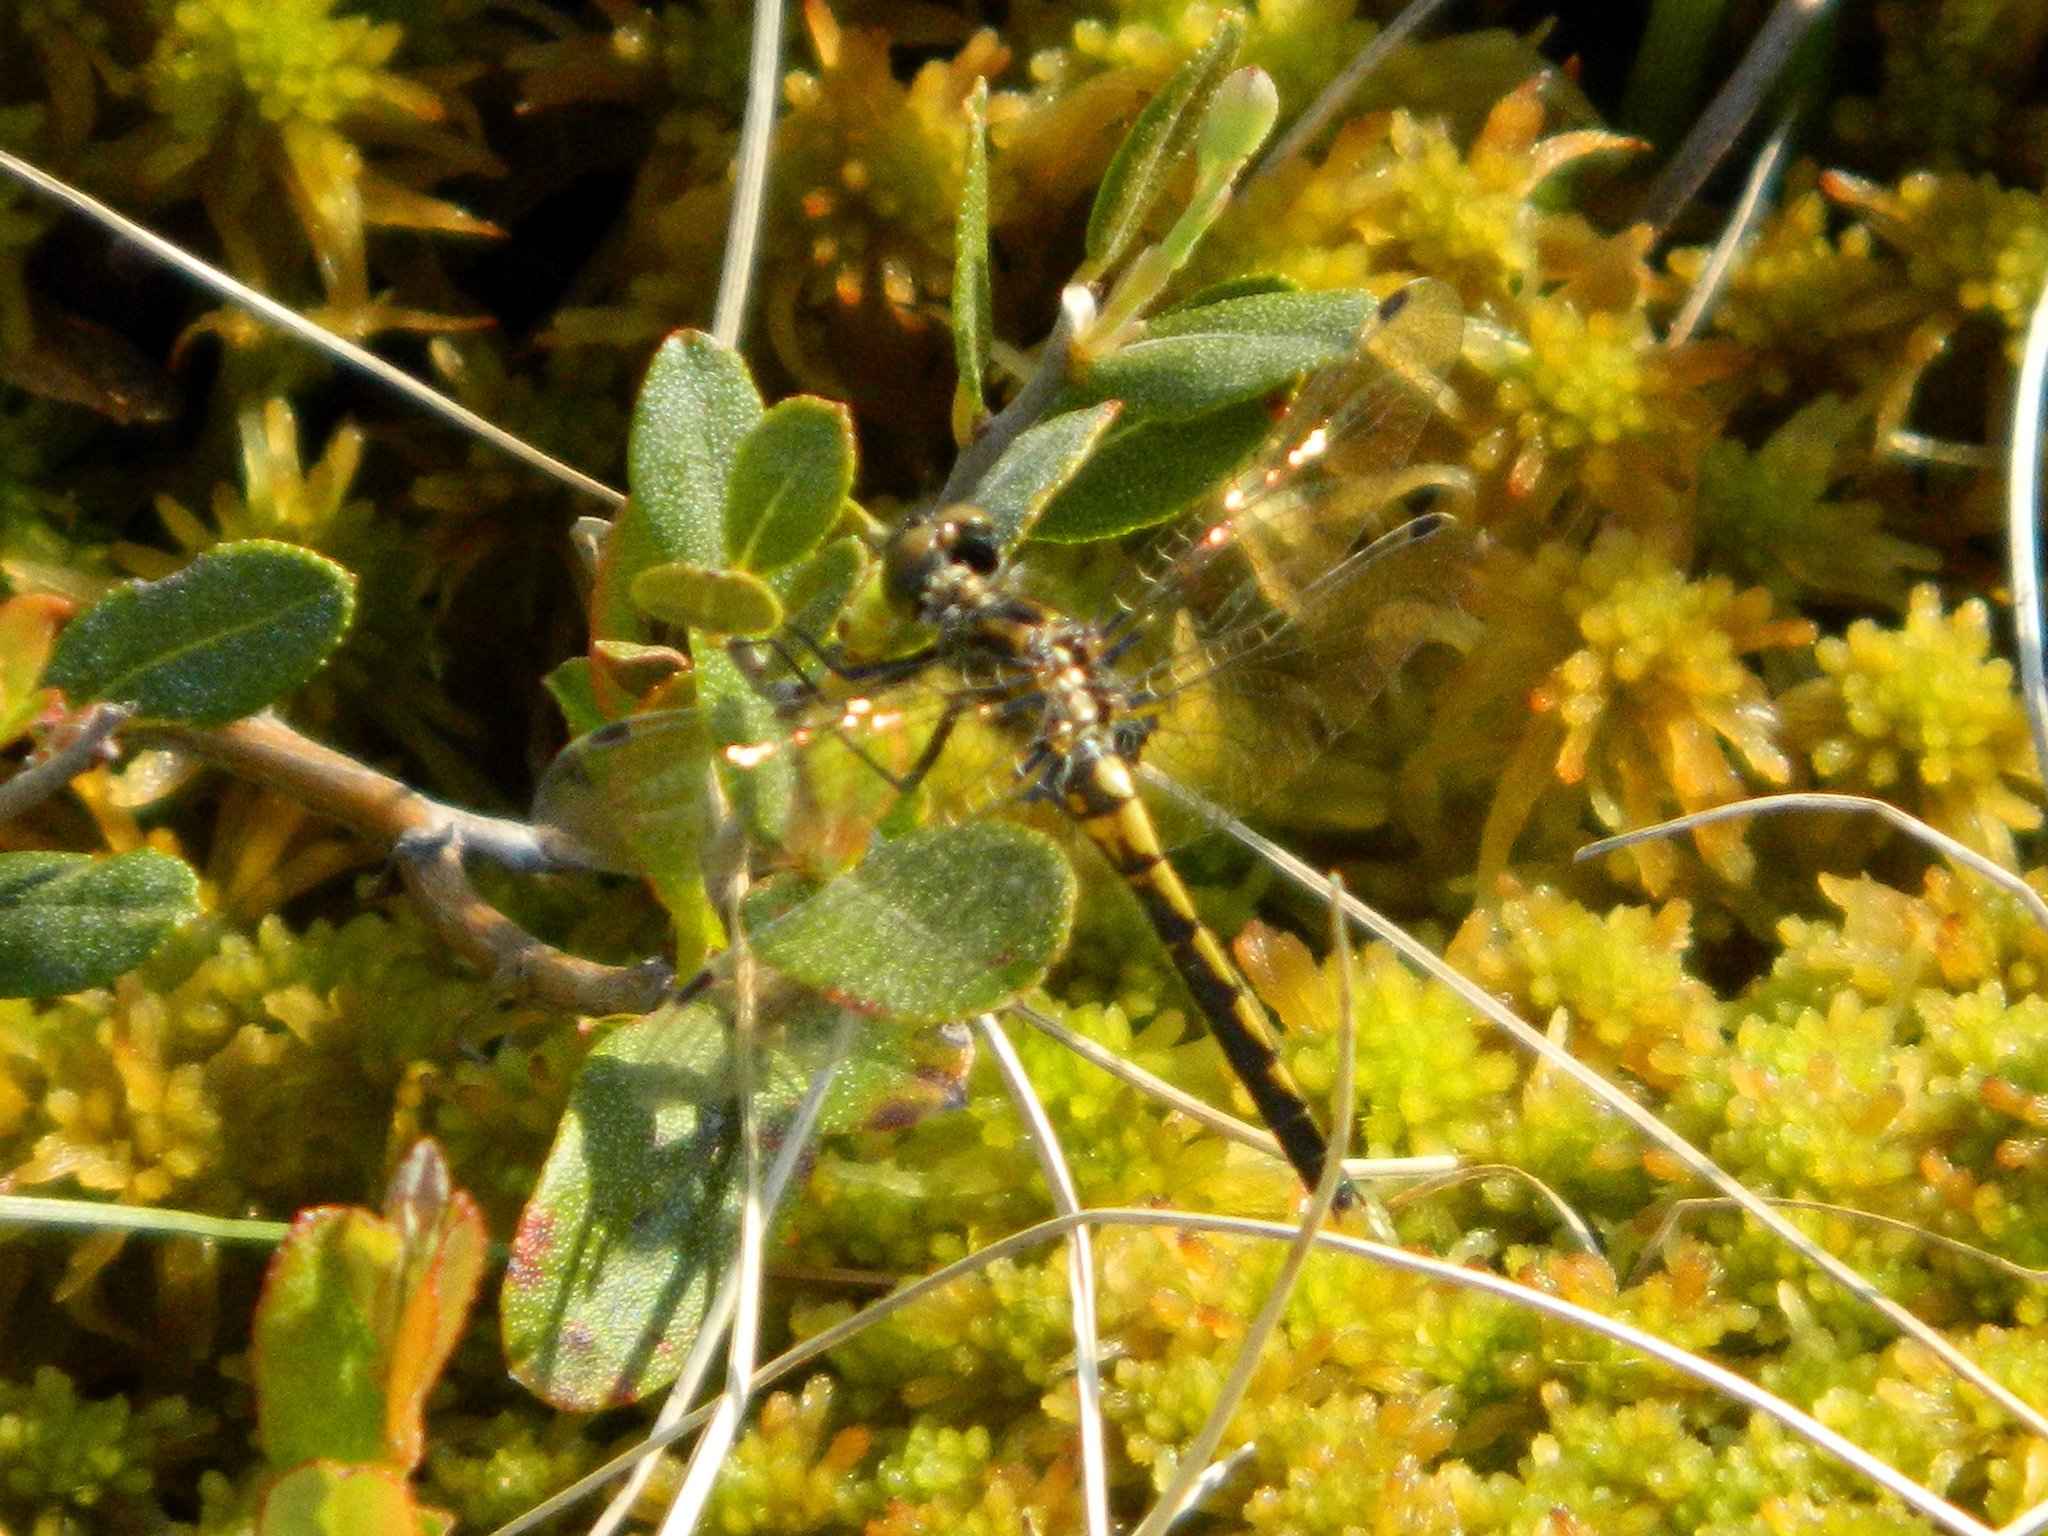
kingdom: Animalia
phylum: Arthropoda
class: Insecta
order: Odonata
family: Libellulidae
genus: Leucorrhinia
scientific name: Leucorrhinia hudsonica
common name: Hudsonian whiteface
